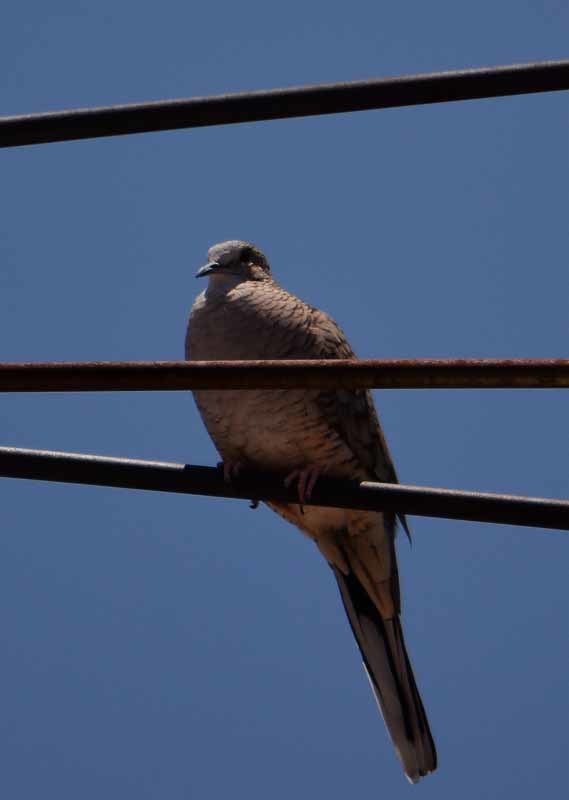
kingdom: Animalia
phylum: Chordata
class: Aves
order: Columbiformes
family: Columbidae
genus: Columbina
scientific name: Columbina inca
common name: Inca dove
